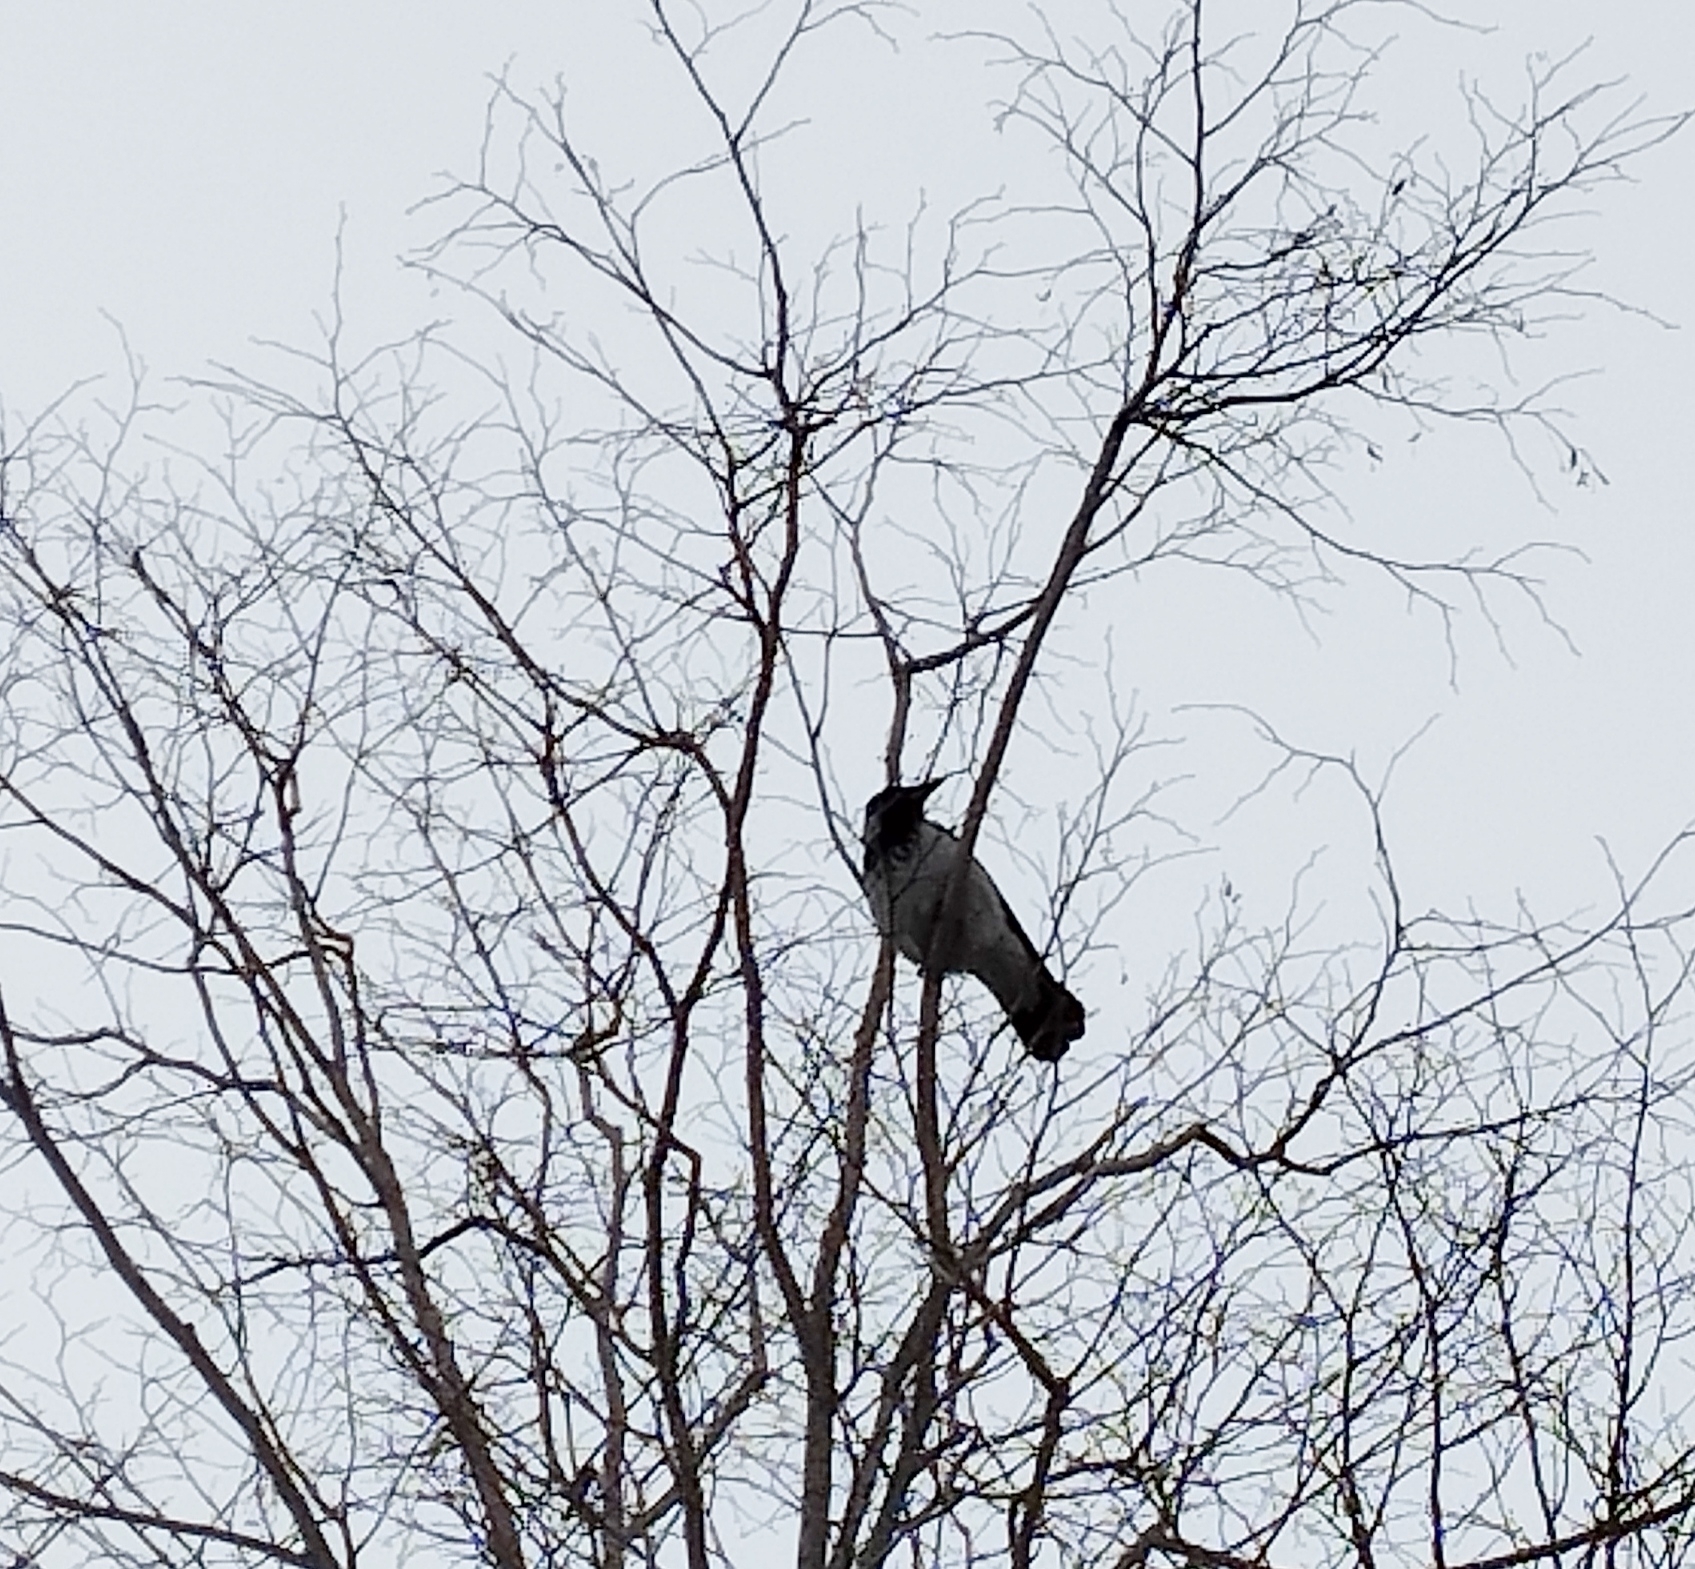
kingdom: Animalia
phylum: Chordata
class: Aves
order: Passeriformes
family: Corvidae
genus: Corvus
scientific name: Corvus cornix
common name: Hooded crow
